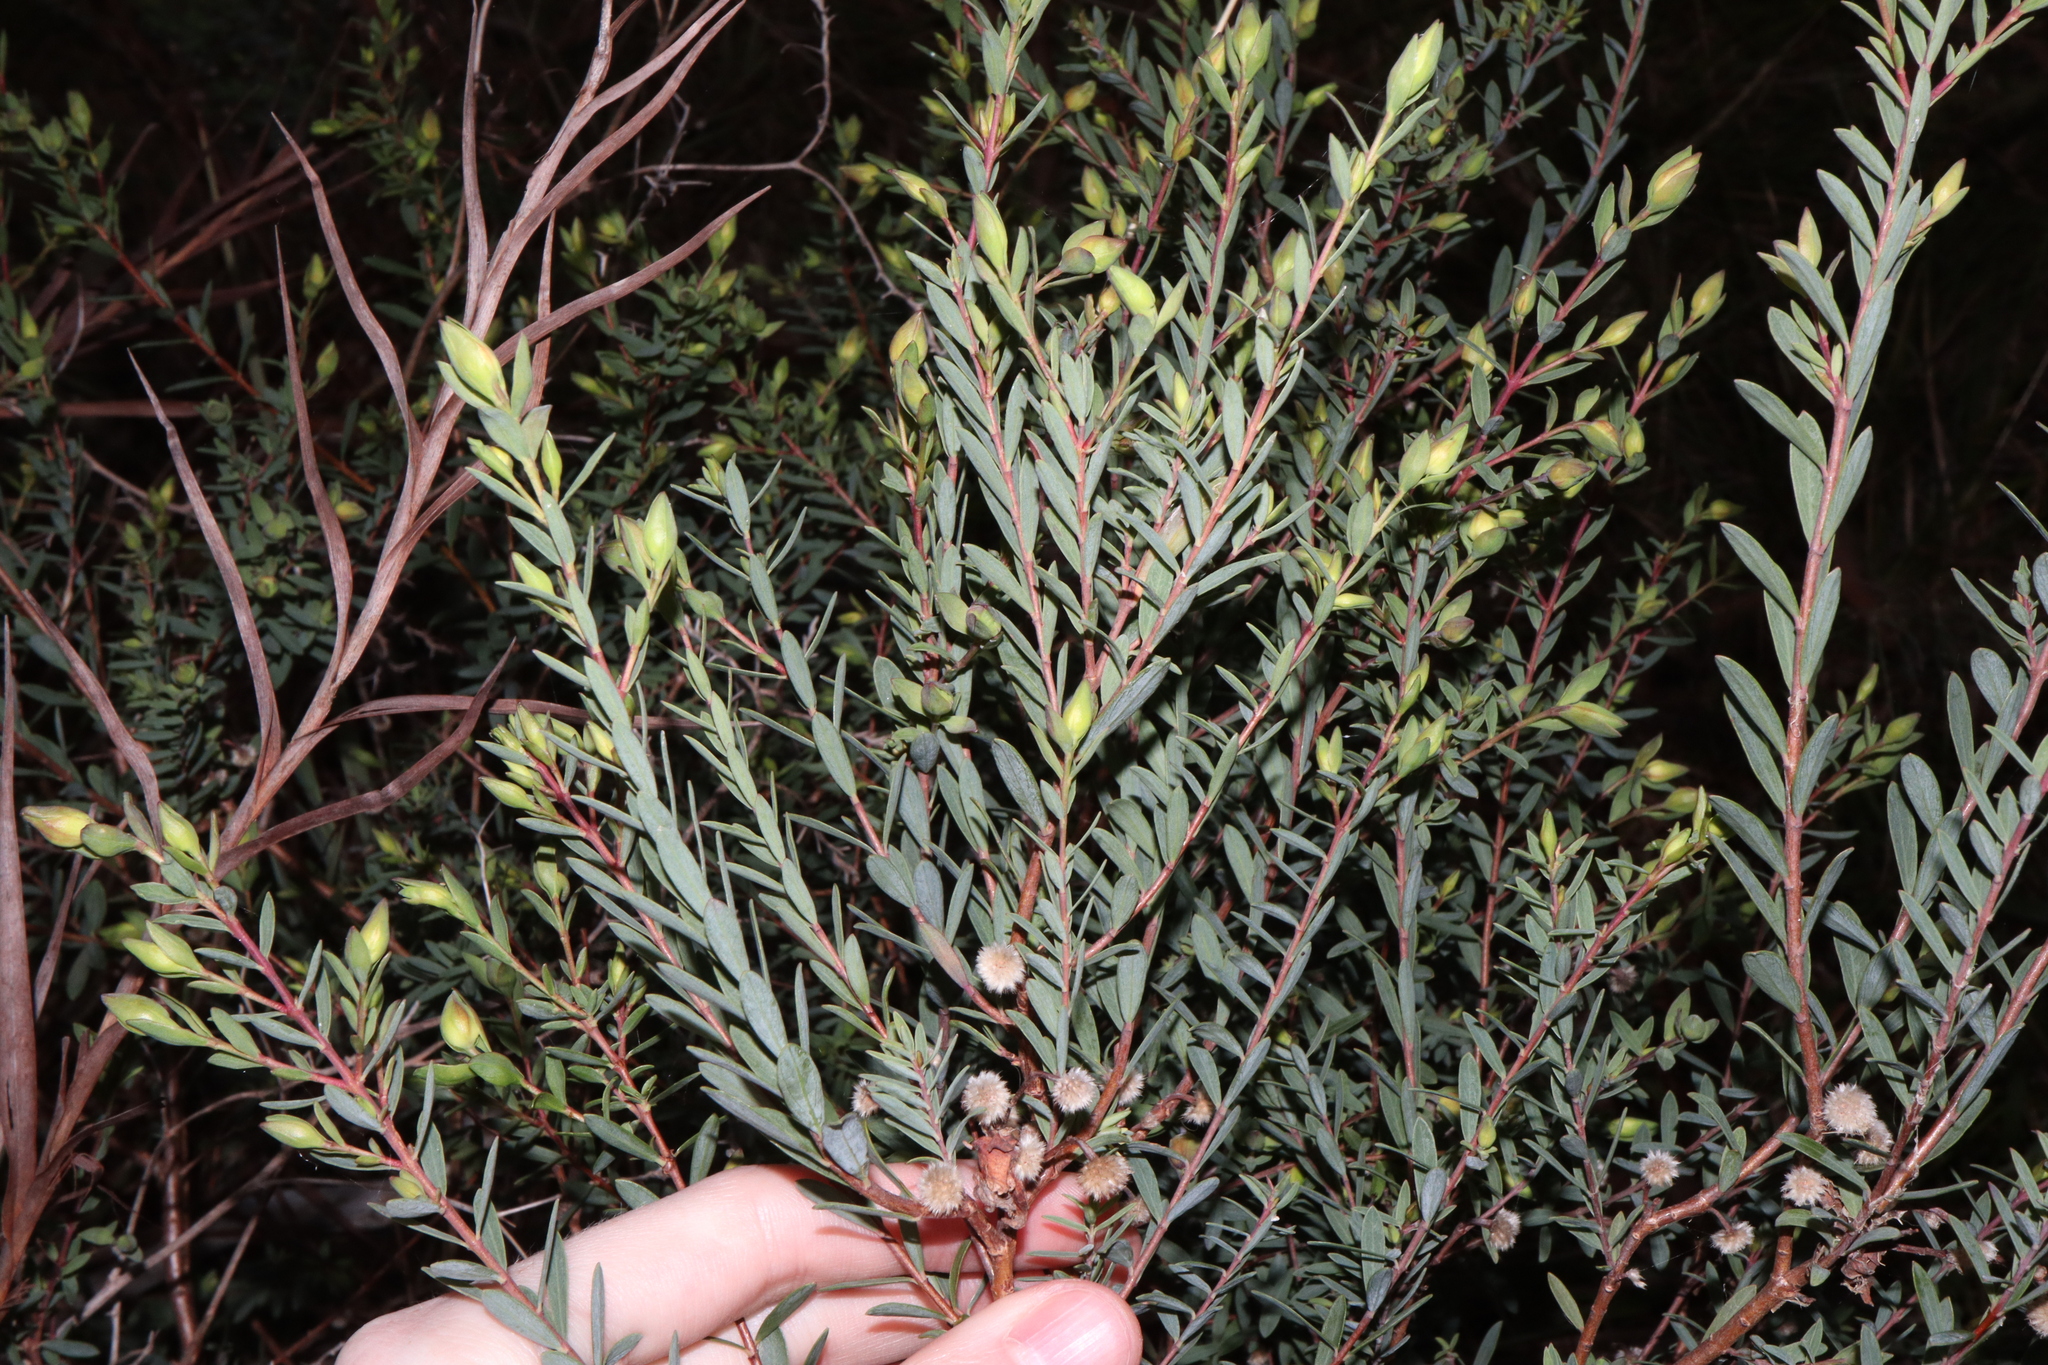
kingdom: Plantae
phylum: Tracheophyta
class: Magnoliopsida
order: Malvales
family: Thymelaeaceae
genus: Pimelea
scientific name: Pimelea linifolia
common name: Queen-of-the-bush
